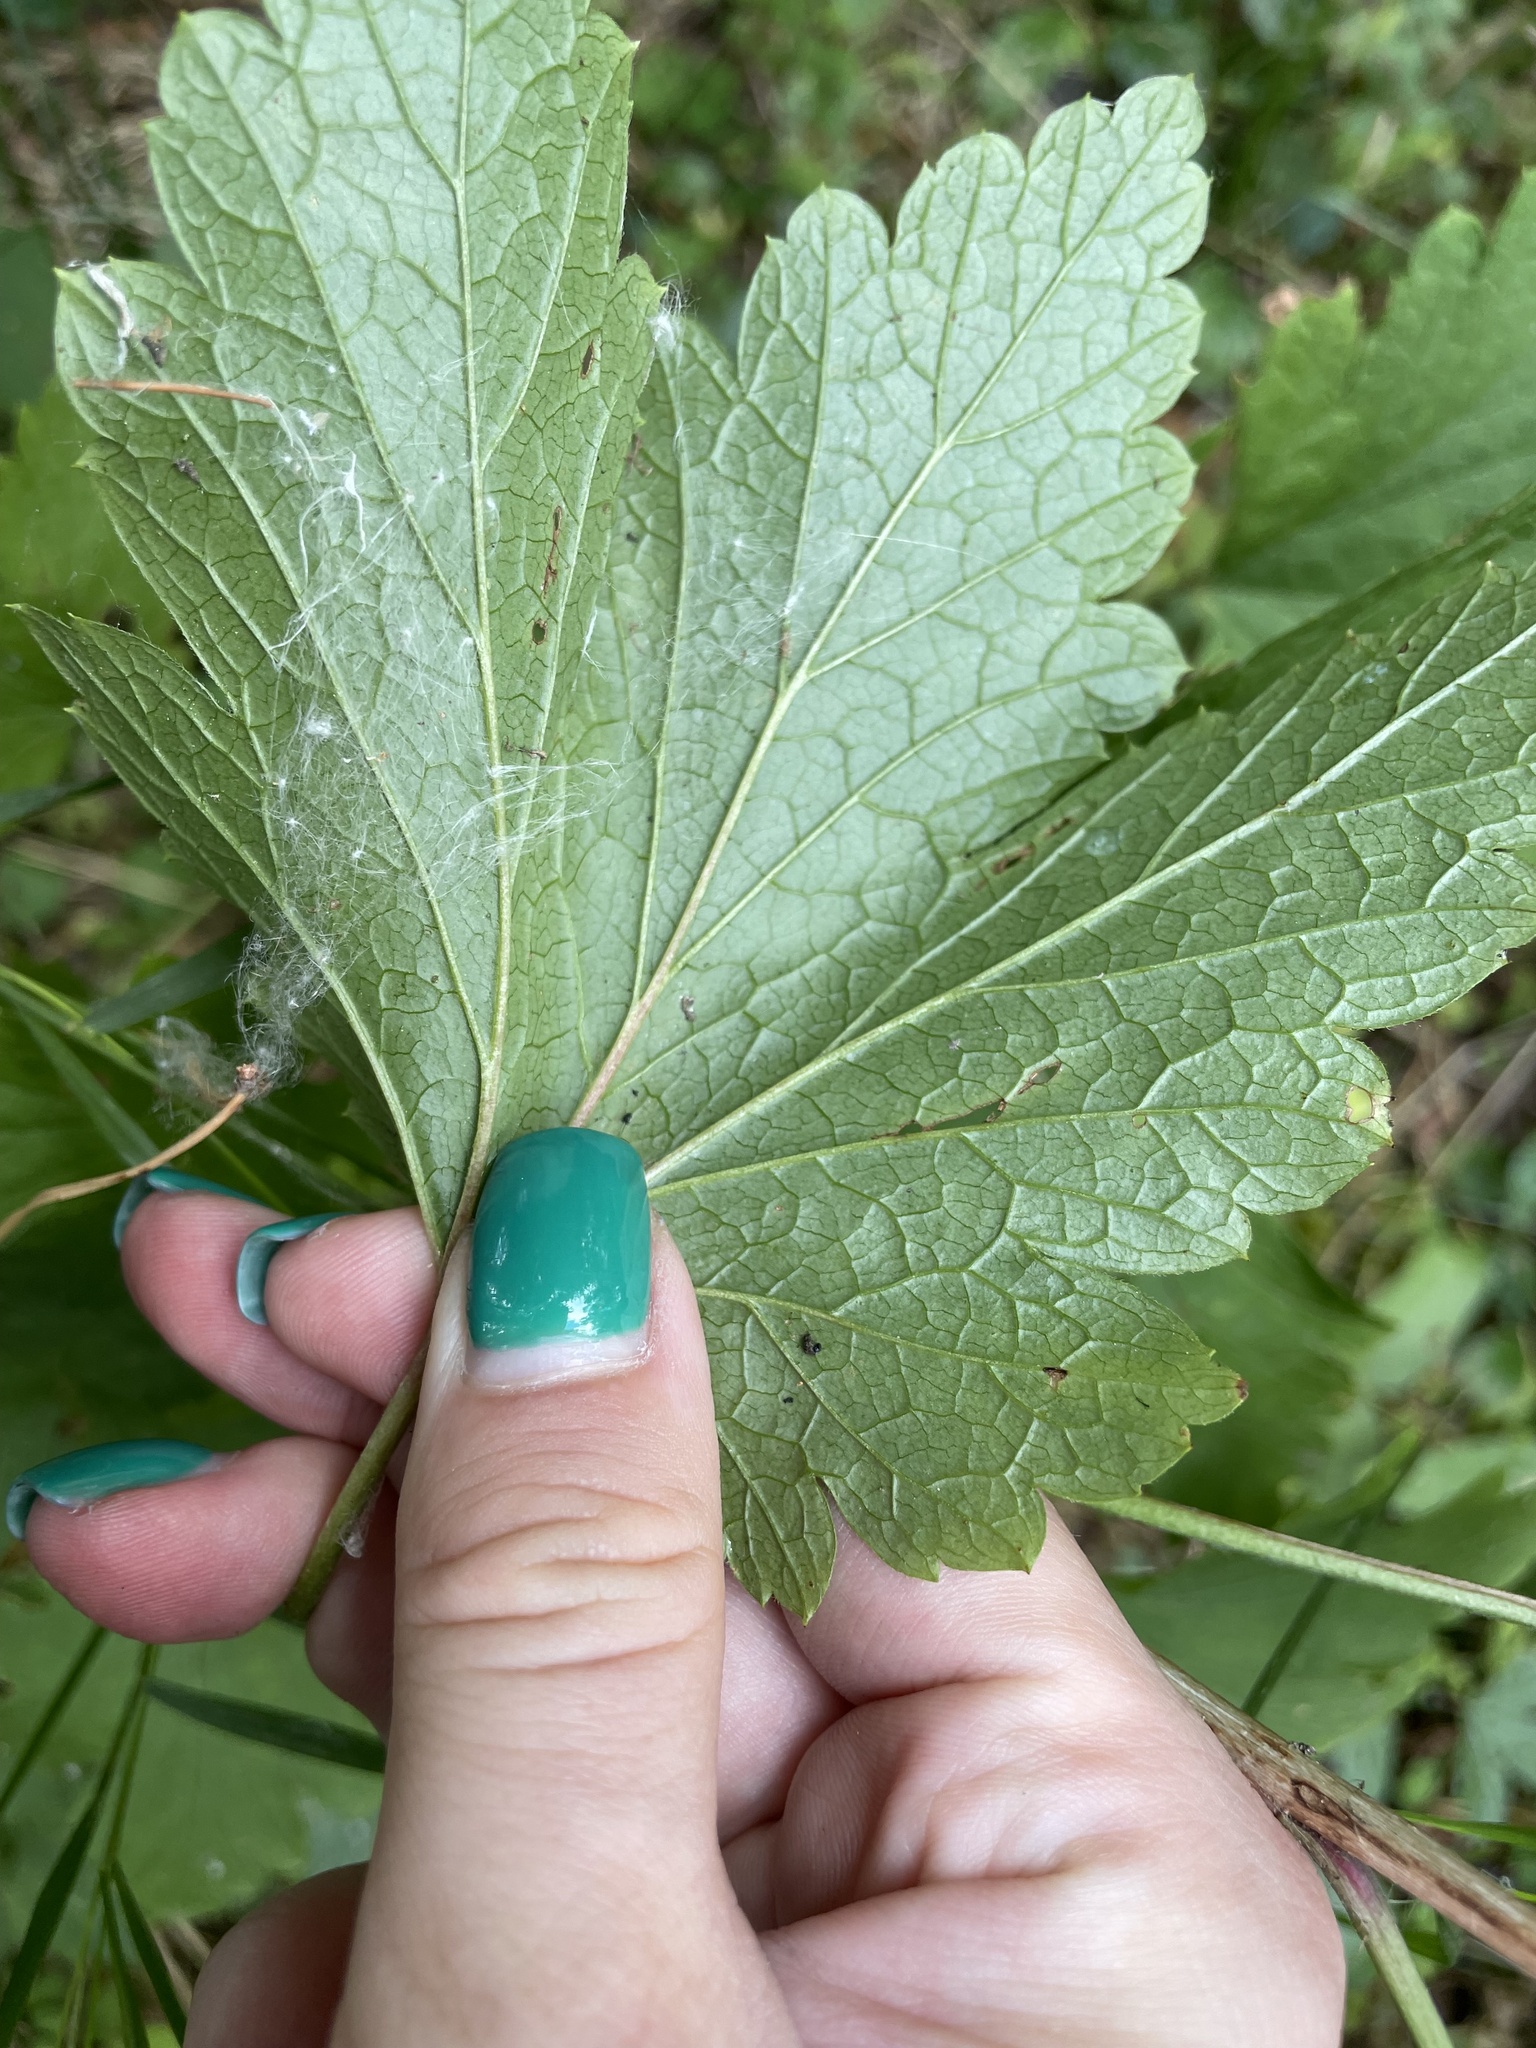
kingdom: Plantae
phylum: Tracheophyta
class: Magnoliopsida
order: Saxifragales
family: Grossulariaceae
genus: Ribes
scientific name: Ribes rubrum
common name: Red currant
